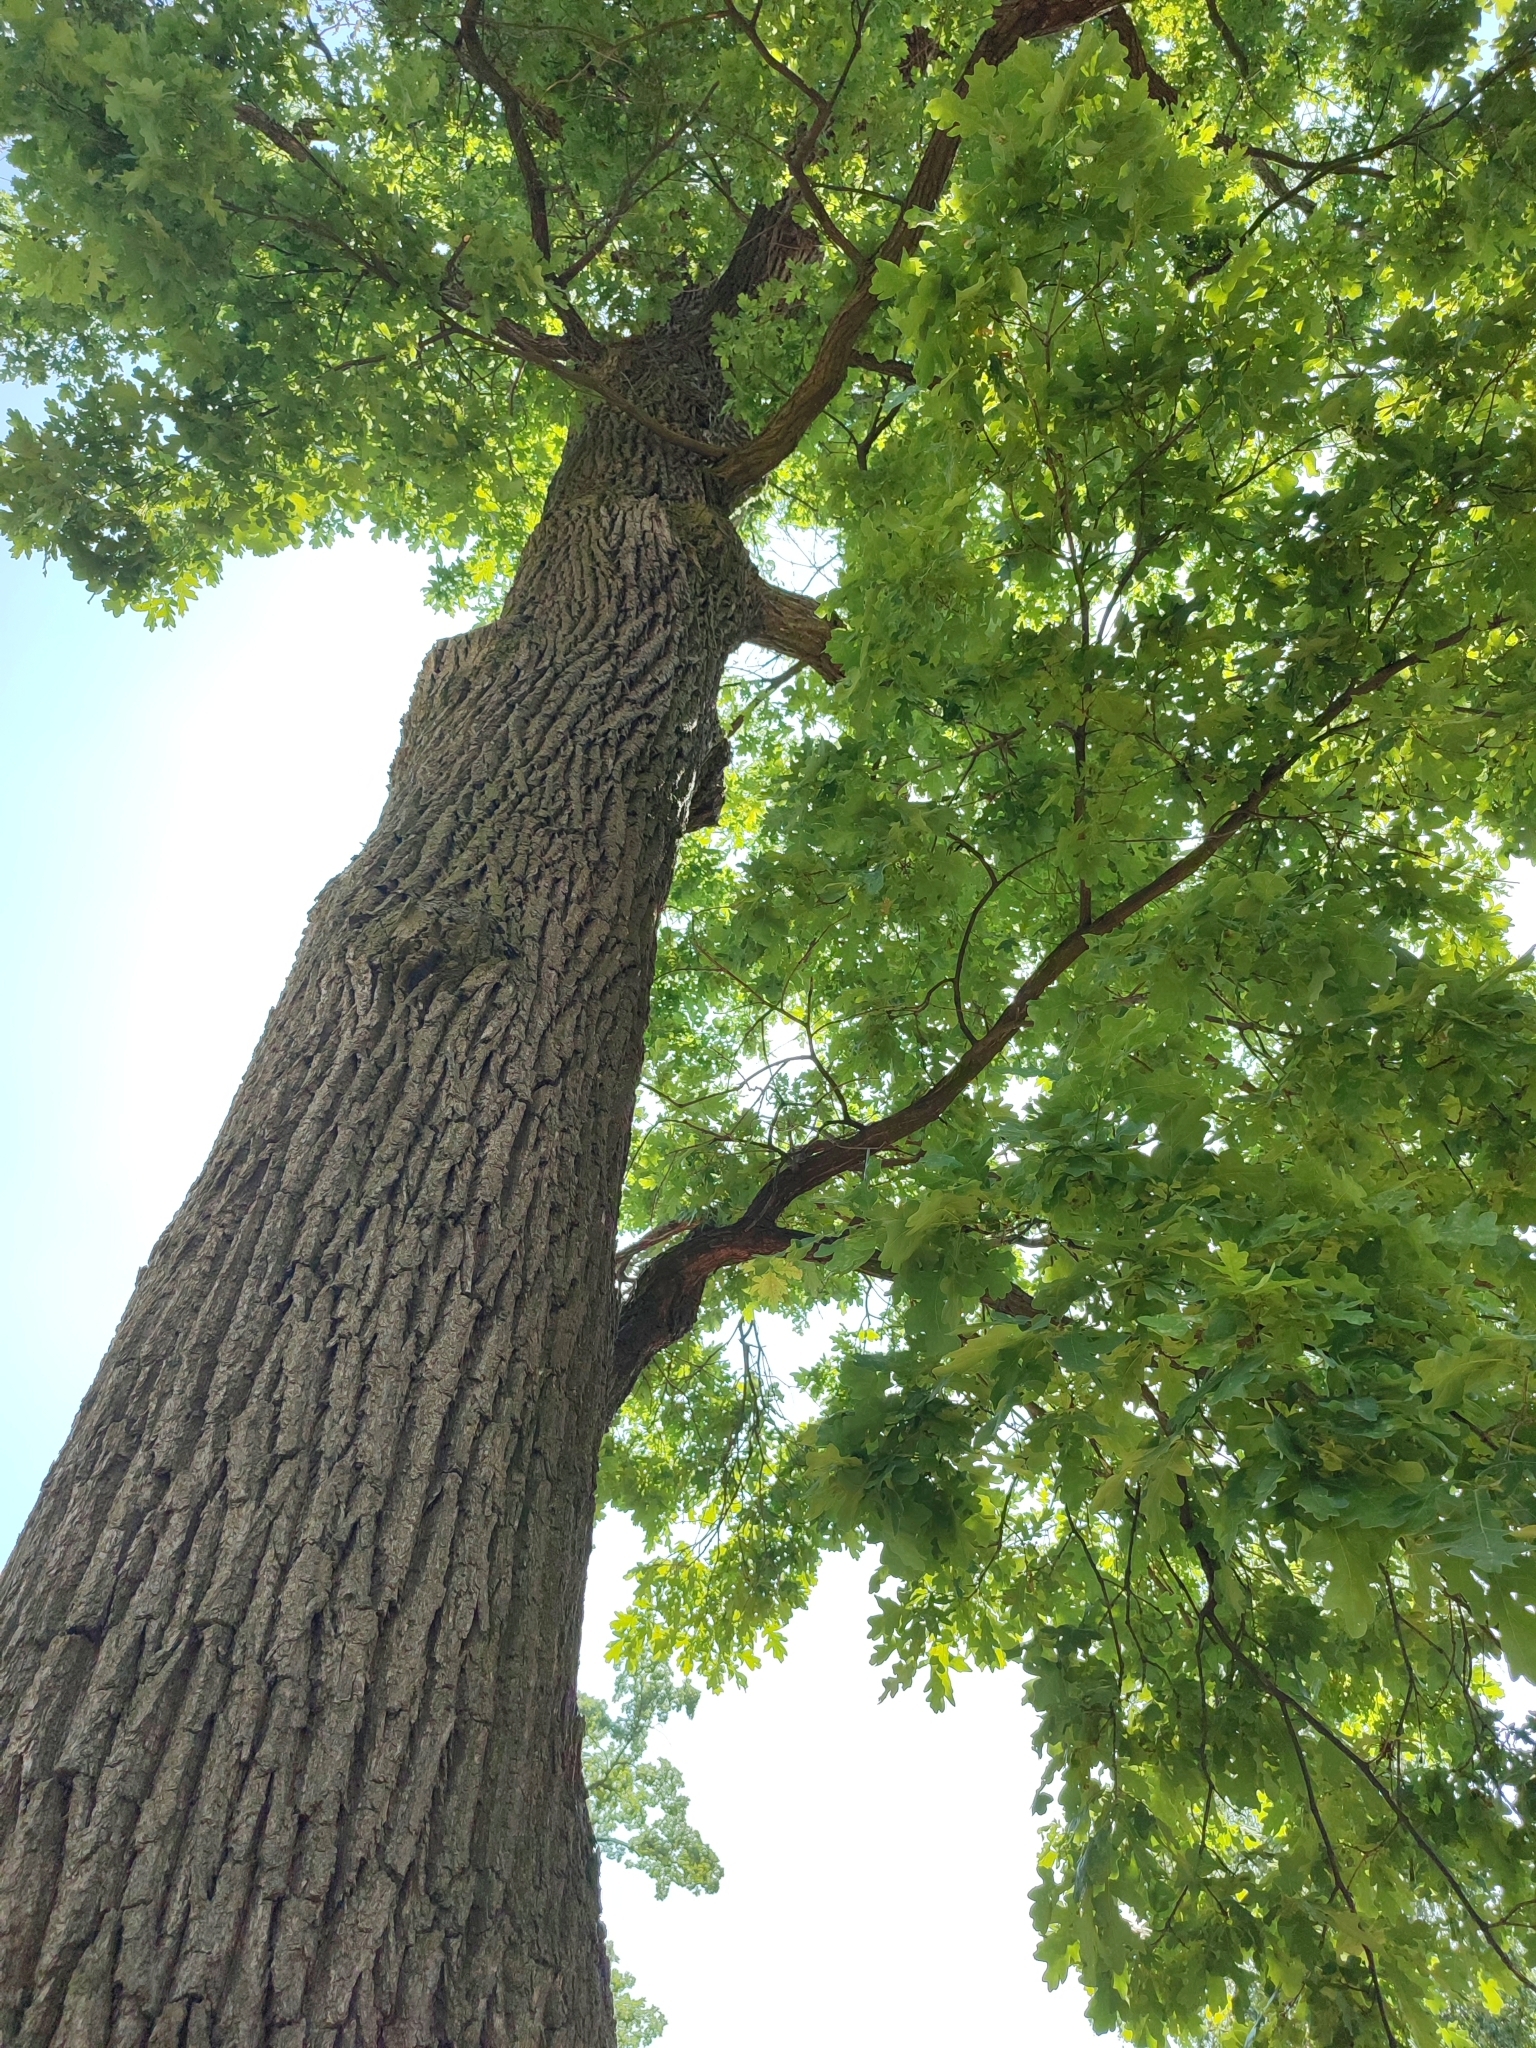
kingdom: Plantae
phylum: Tracheophyta
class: Magnoliopsida
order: Fagales
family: Fagaceae
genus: Quercus
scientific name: Quercus robur
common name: Pedunculate oak
